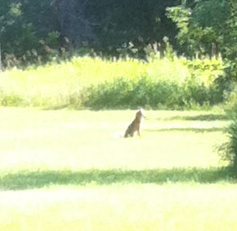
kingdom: Animalia
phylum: Chordata
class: Mammalia
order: Carnivora
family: Canidae
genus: Vulpes
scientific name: Vulpes vulpes
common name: Red fox
